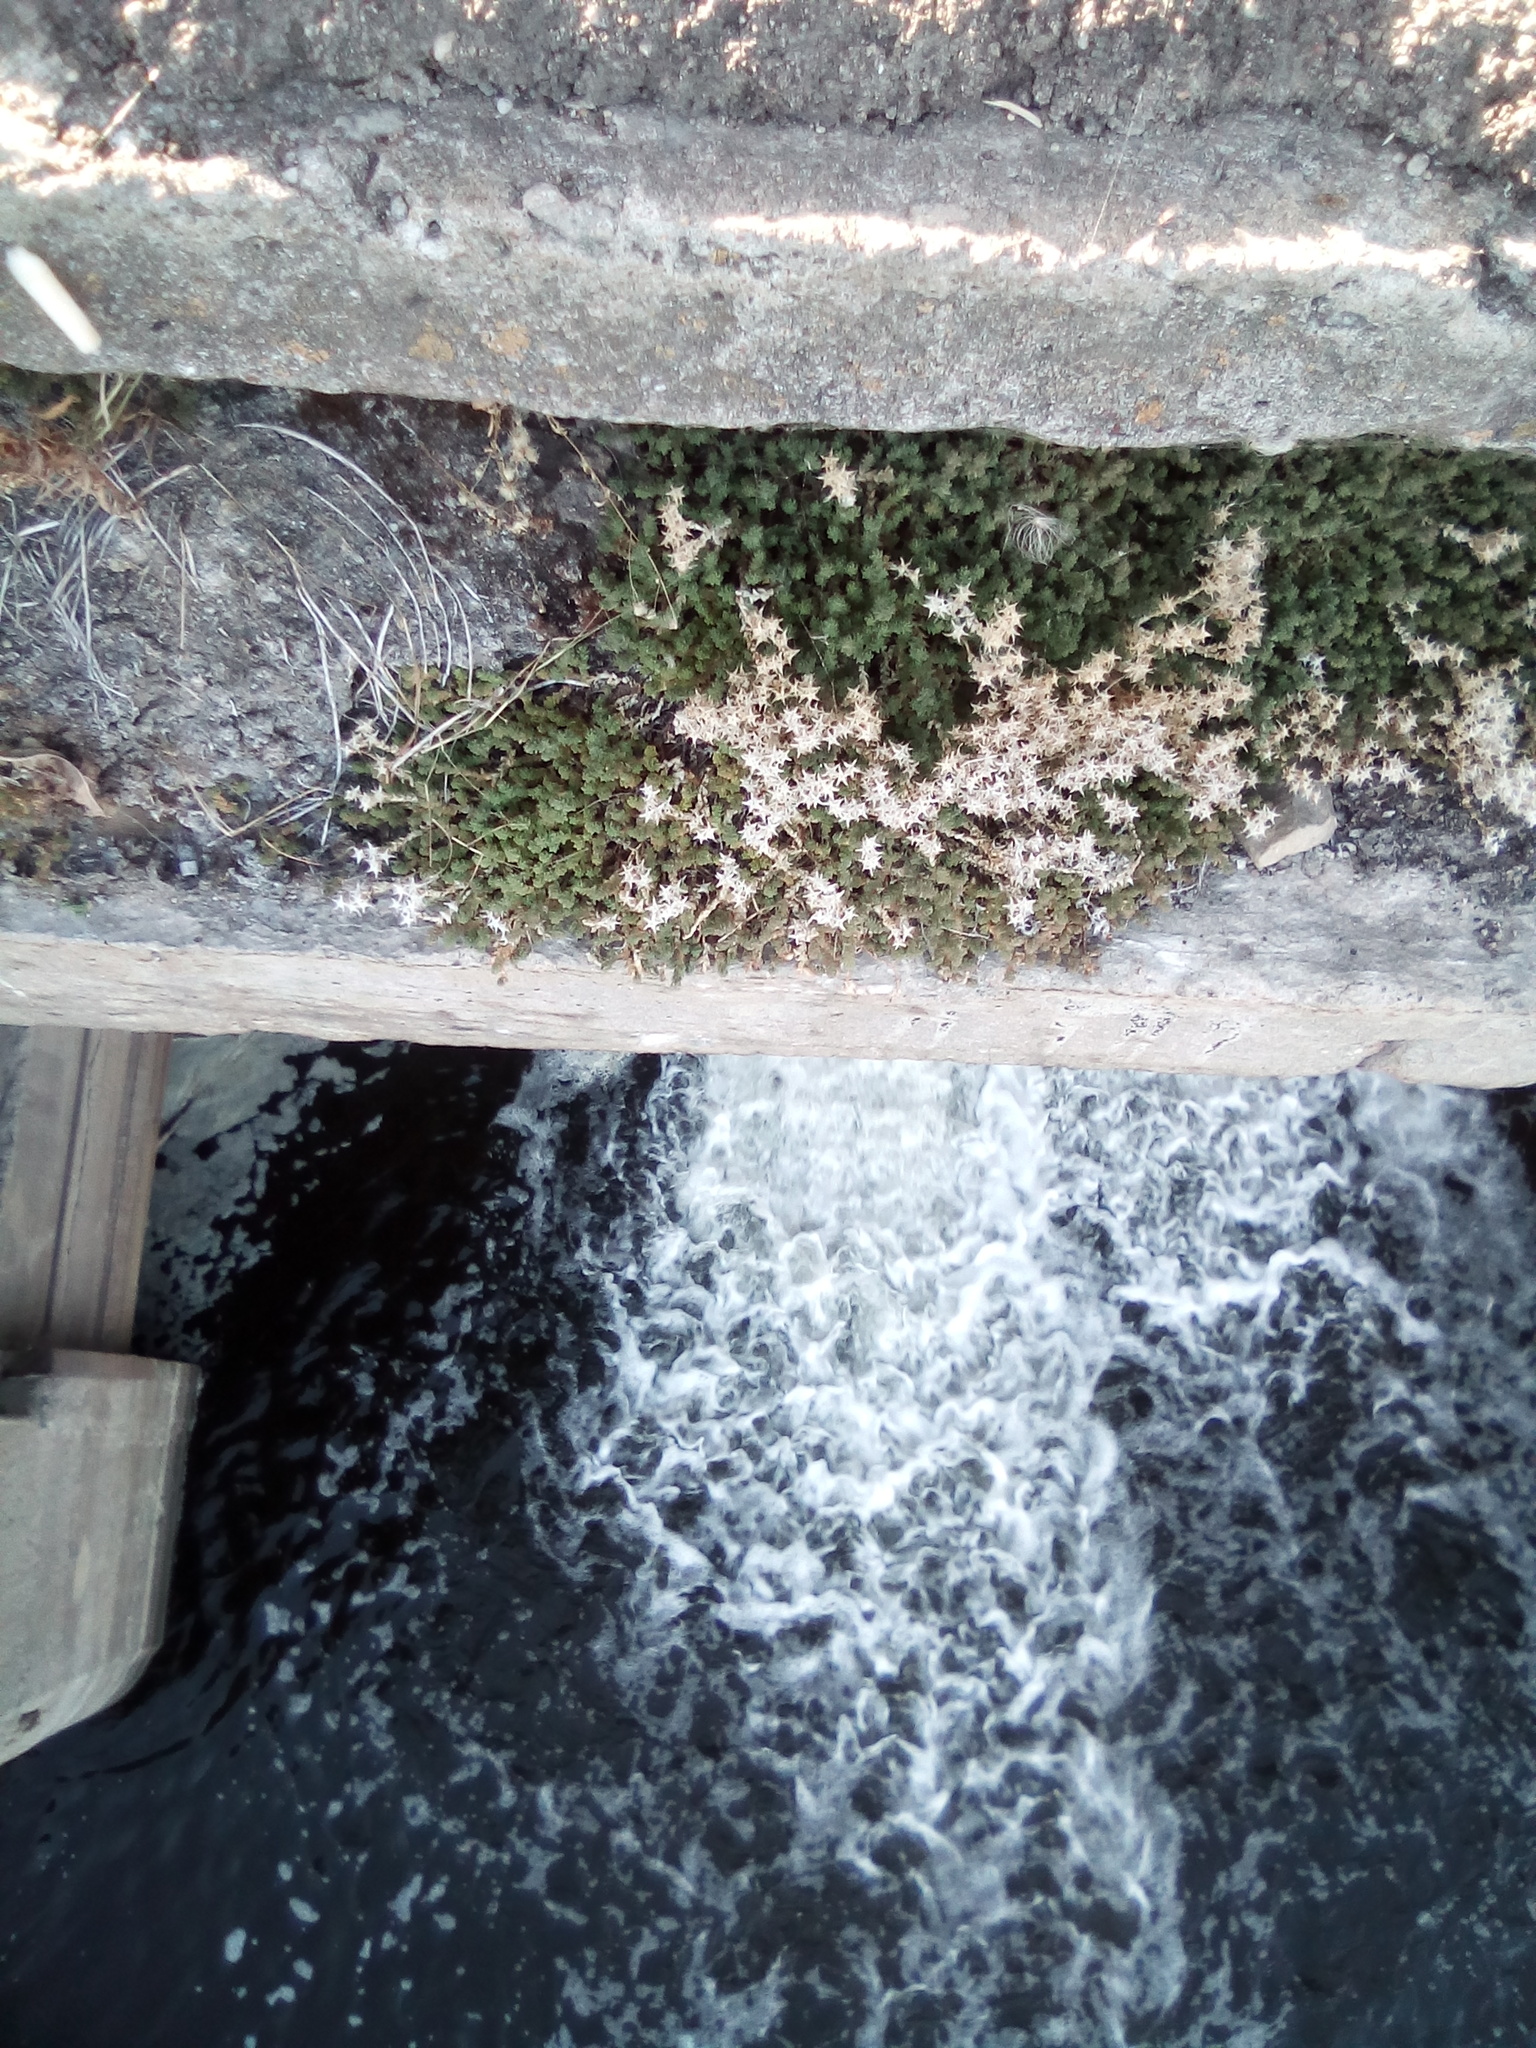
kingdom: Plantae
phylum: Tracheophyta
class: Magnoliopsida
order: Saxifragales
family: Crassulaceae
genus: Sedum
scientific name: Sedum acre
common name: Biting stonecrop
